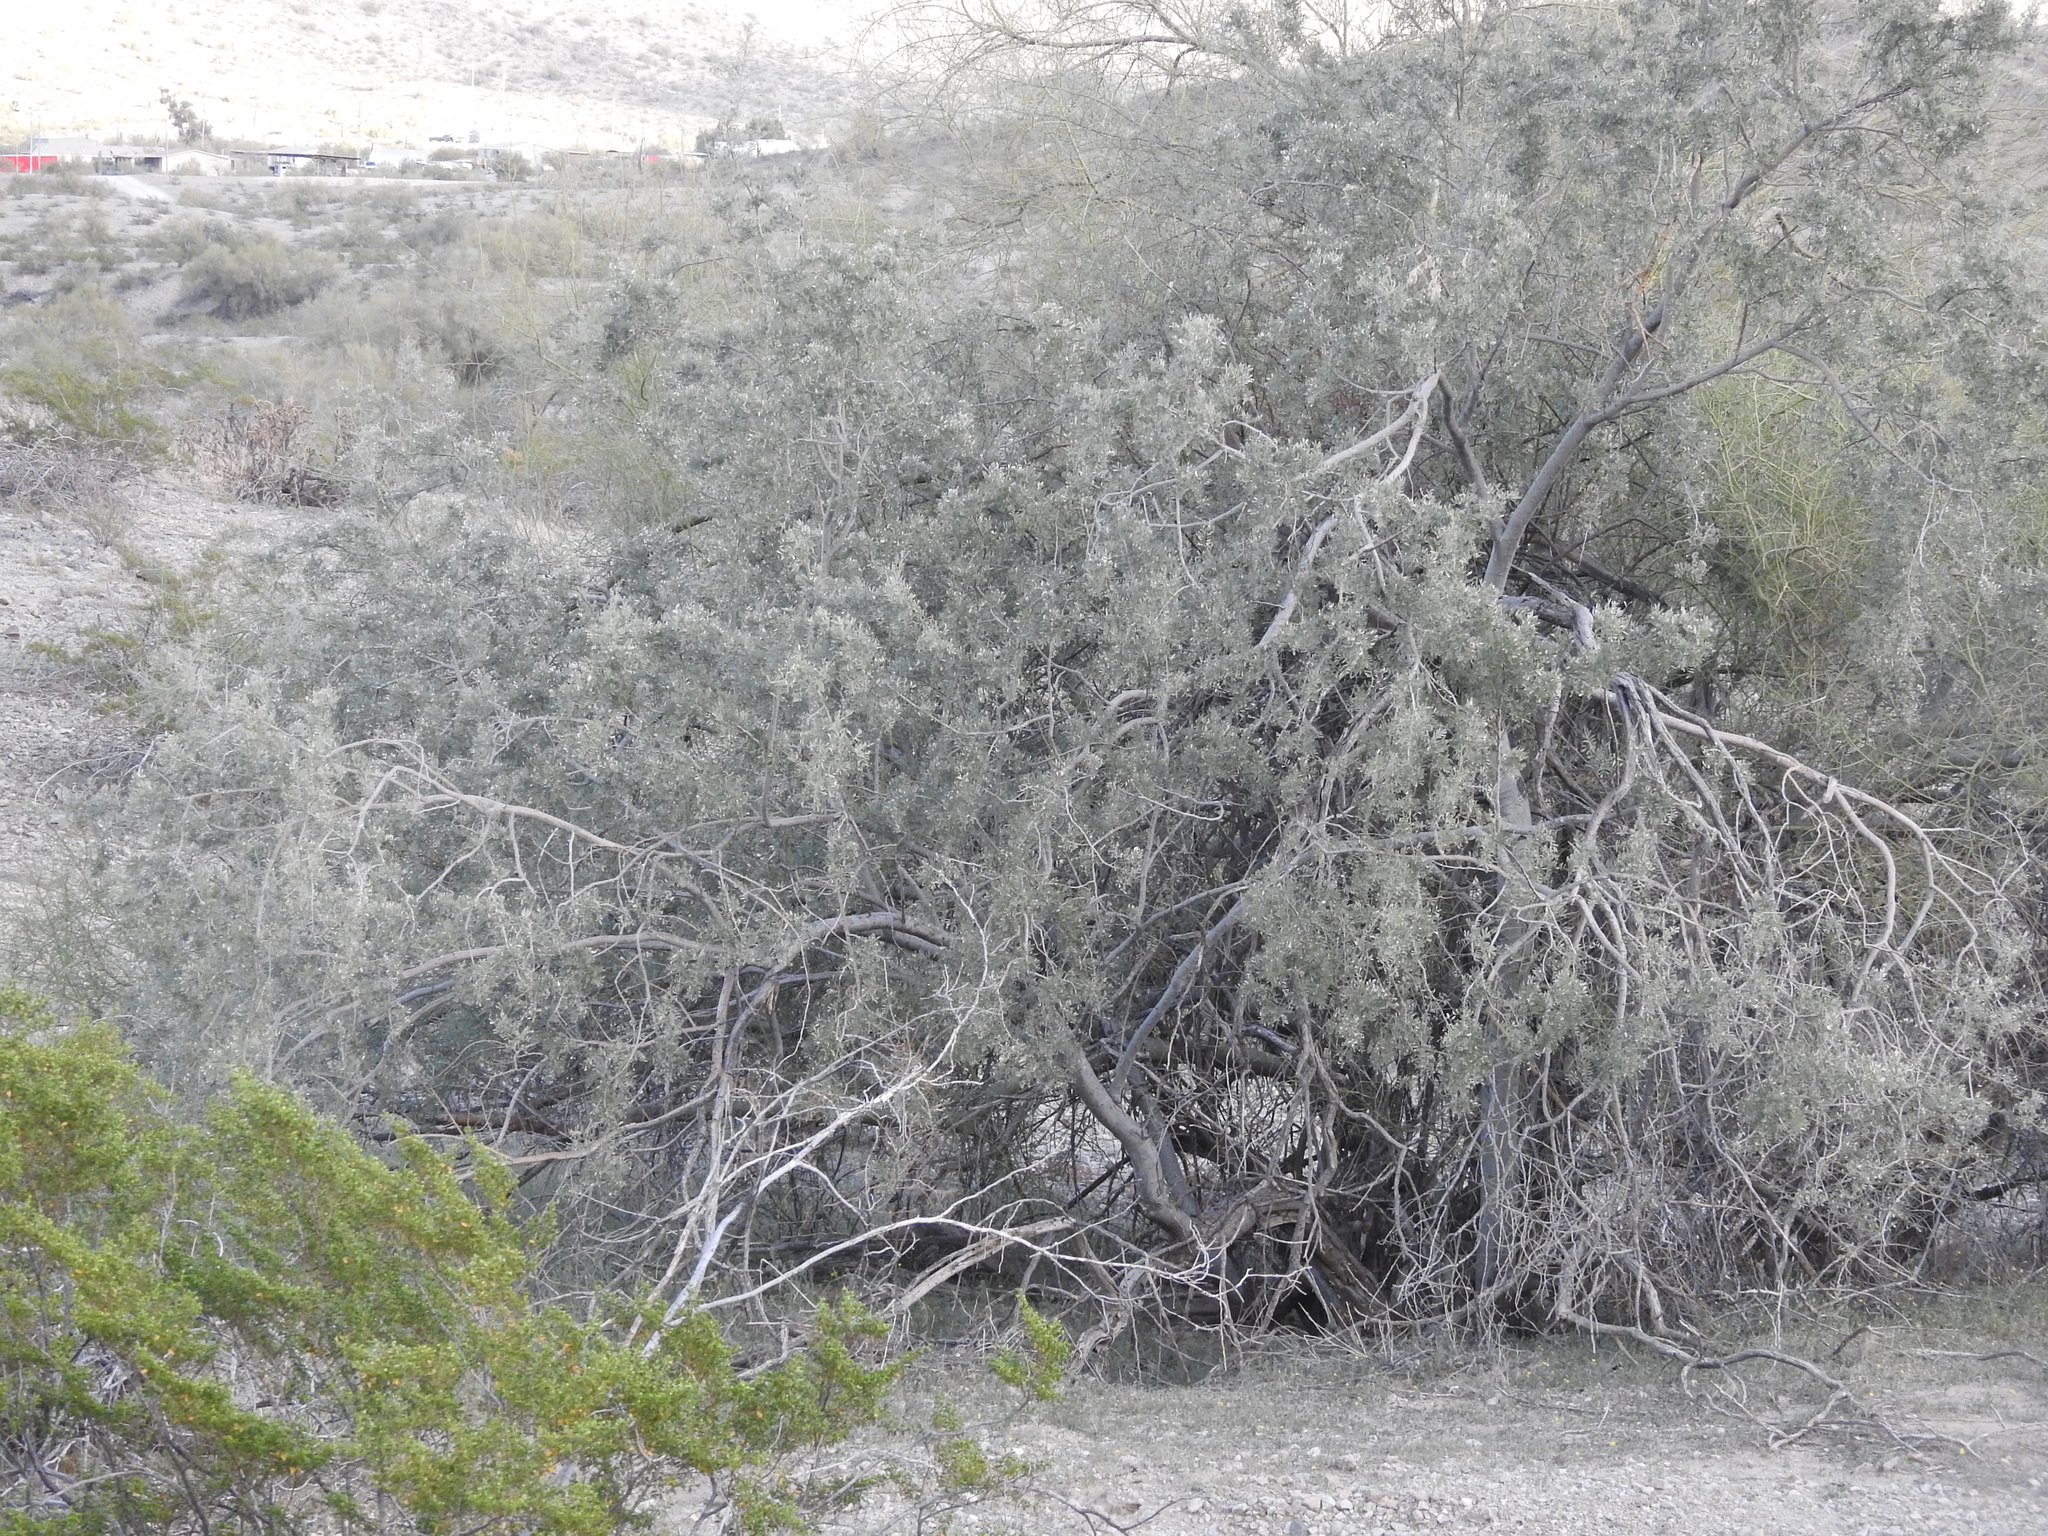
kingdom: Plantae
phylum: Tracheophyta
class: Magnoliopsida
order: Fabales
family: Fabaceae
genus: Olneya
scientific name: Olneya tesota
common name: Desert ironwood
